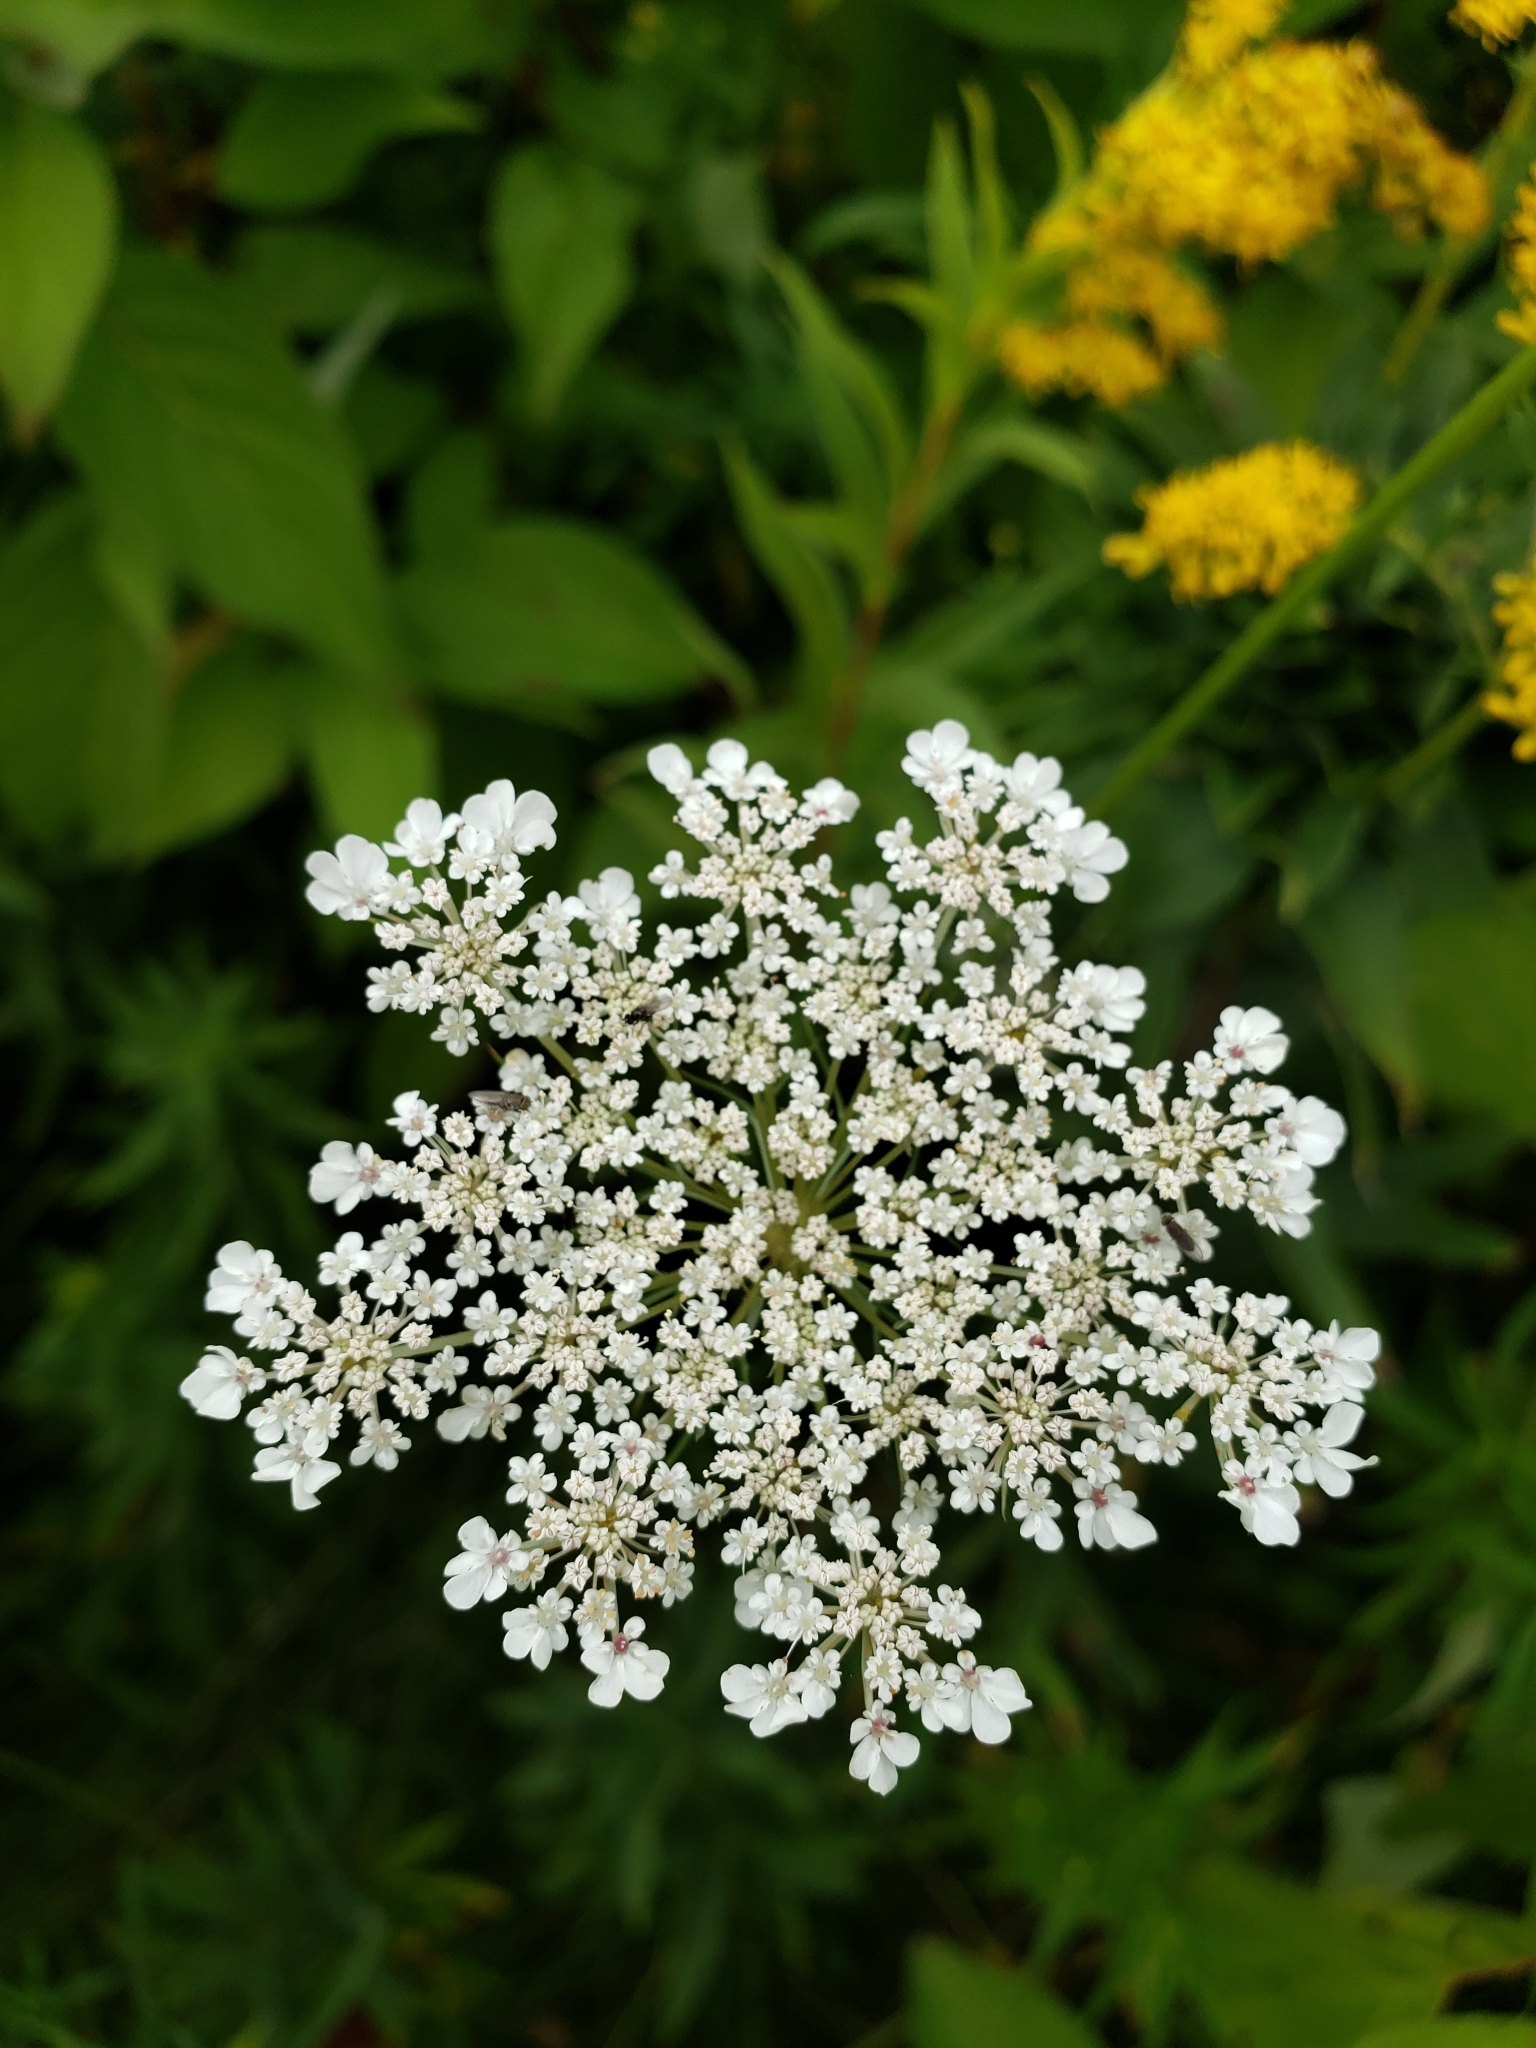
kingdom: Plantae
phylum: Tracheophyta
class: Magnoliopsida
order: Apiales
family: Apiaceae
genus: Daucus
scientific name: Daucus carota
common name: Wild carrot
